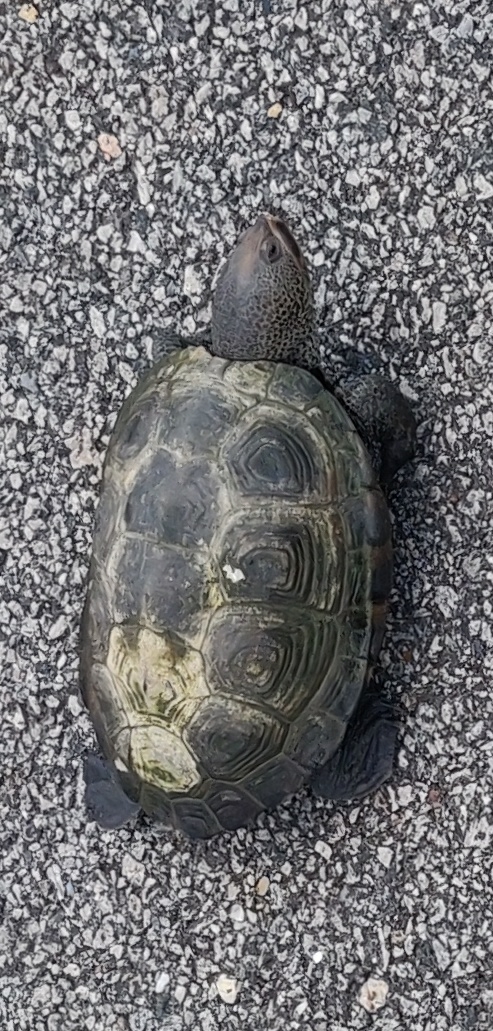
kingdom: Animalia
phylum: Chordata
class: Testudines
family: Emydidae
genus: Malaclemys
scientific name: Malaclemys terrapin
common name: Diamondback terrapin
